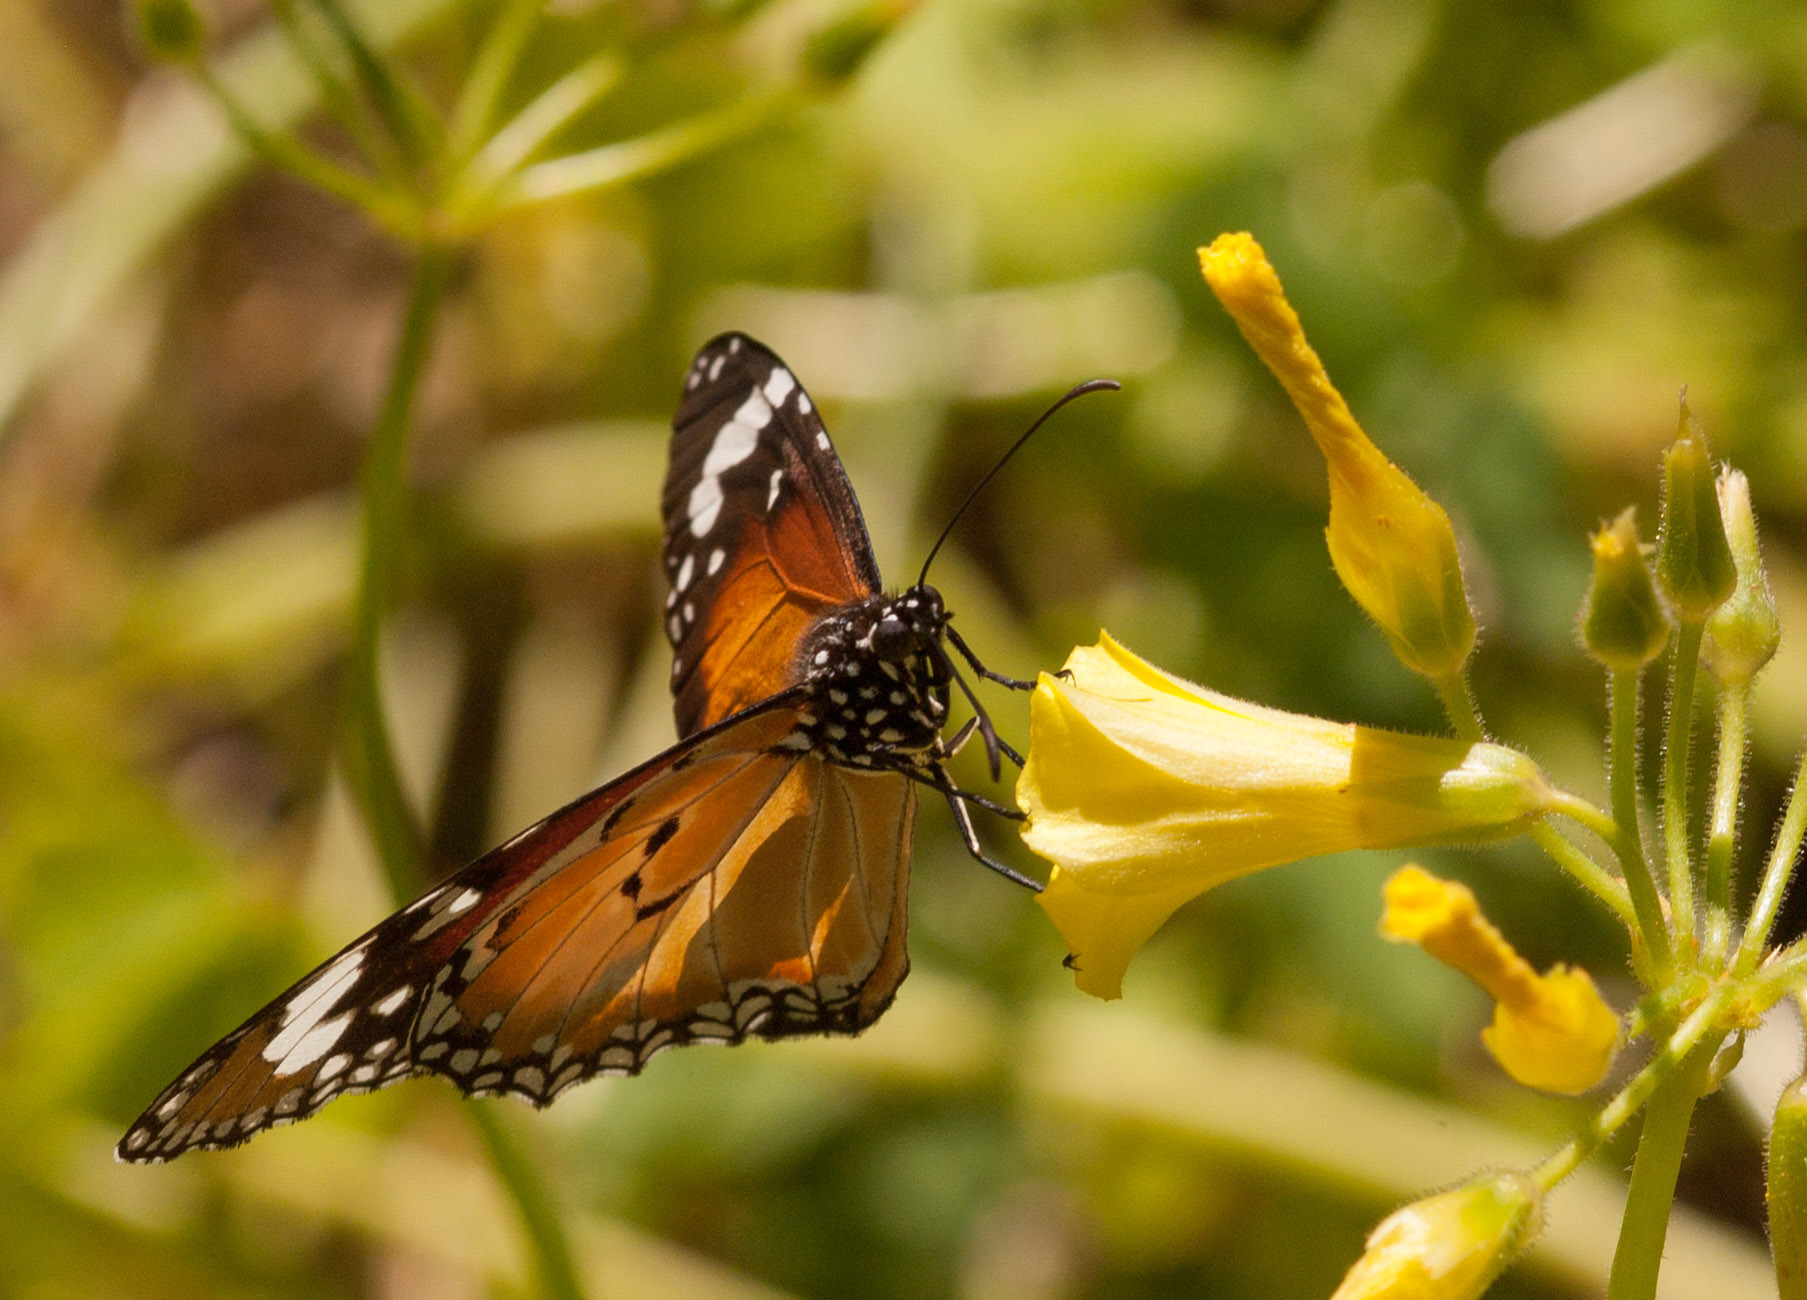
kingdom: Animalia
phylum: Arthropoda
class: Insecta
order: Lepidoptera
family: Nymphalidae
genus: Danaus
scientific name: Danaus chrysippus
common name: Plain tiger
